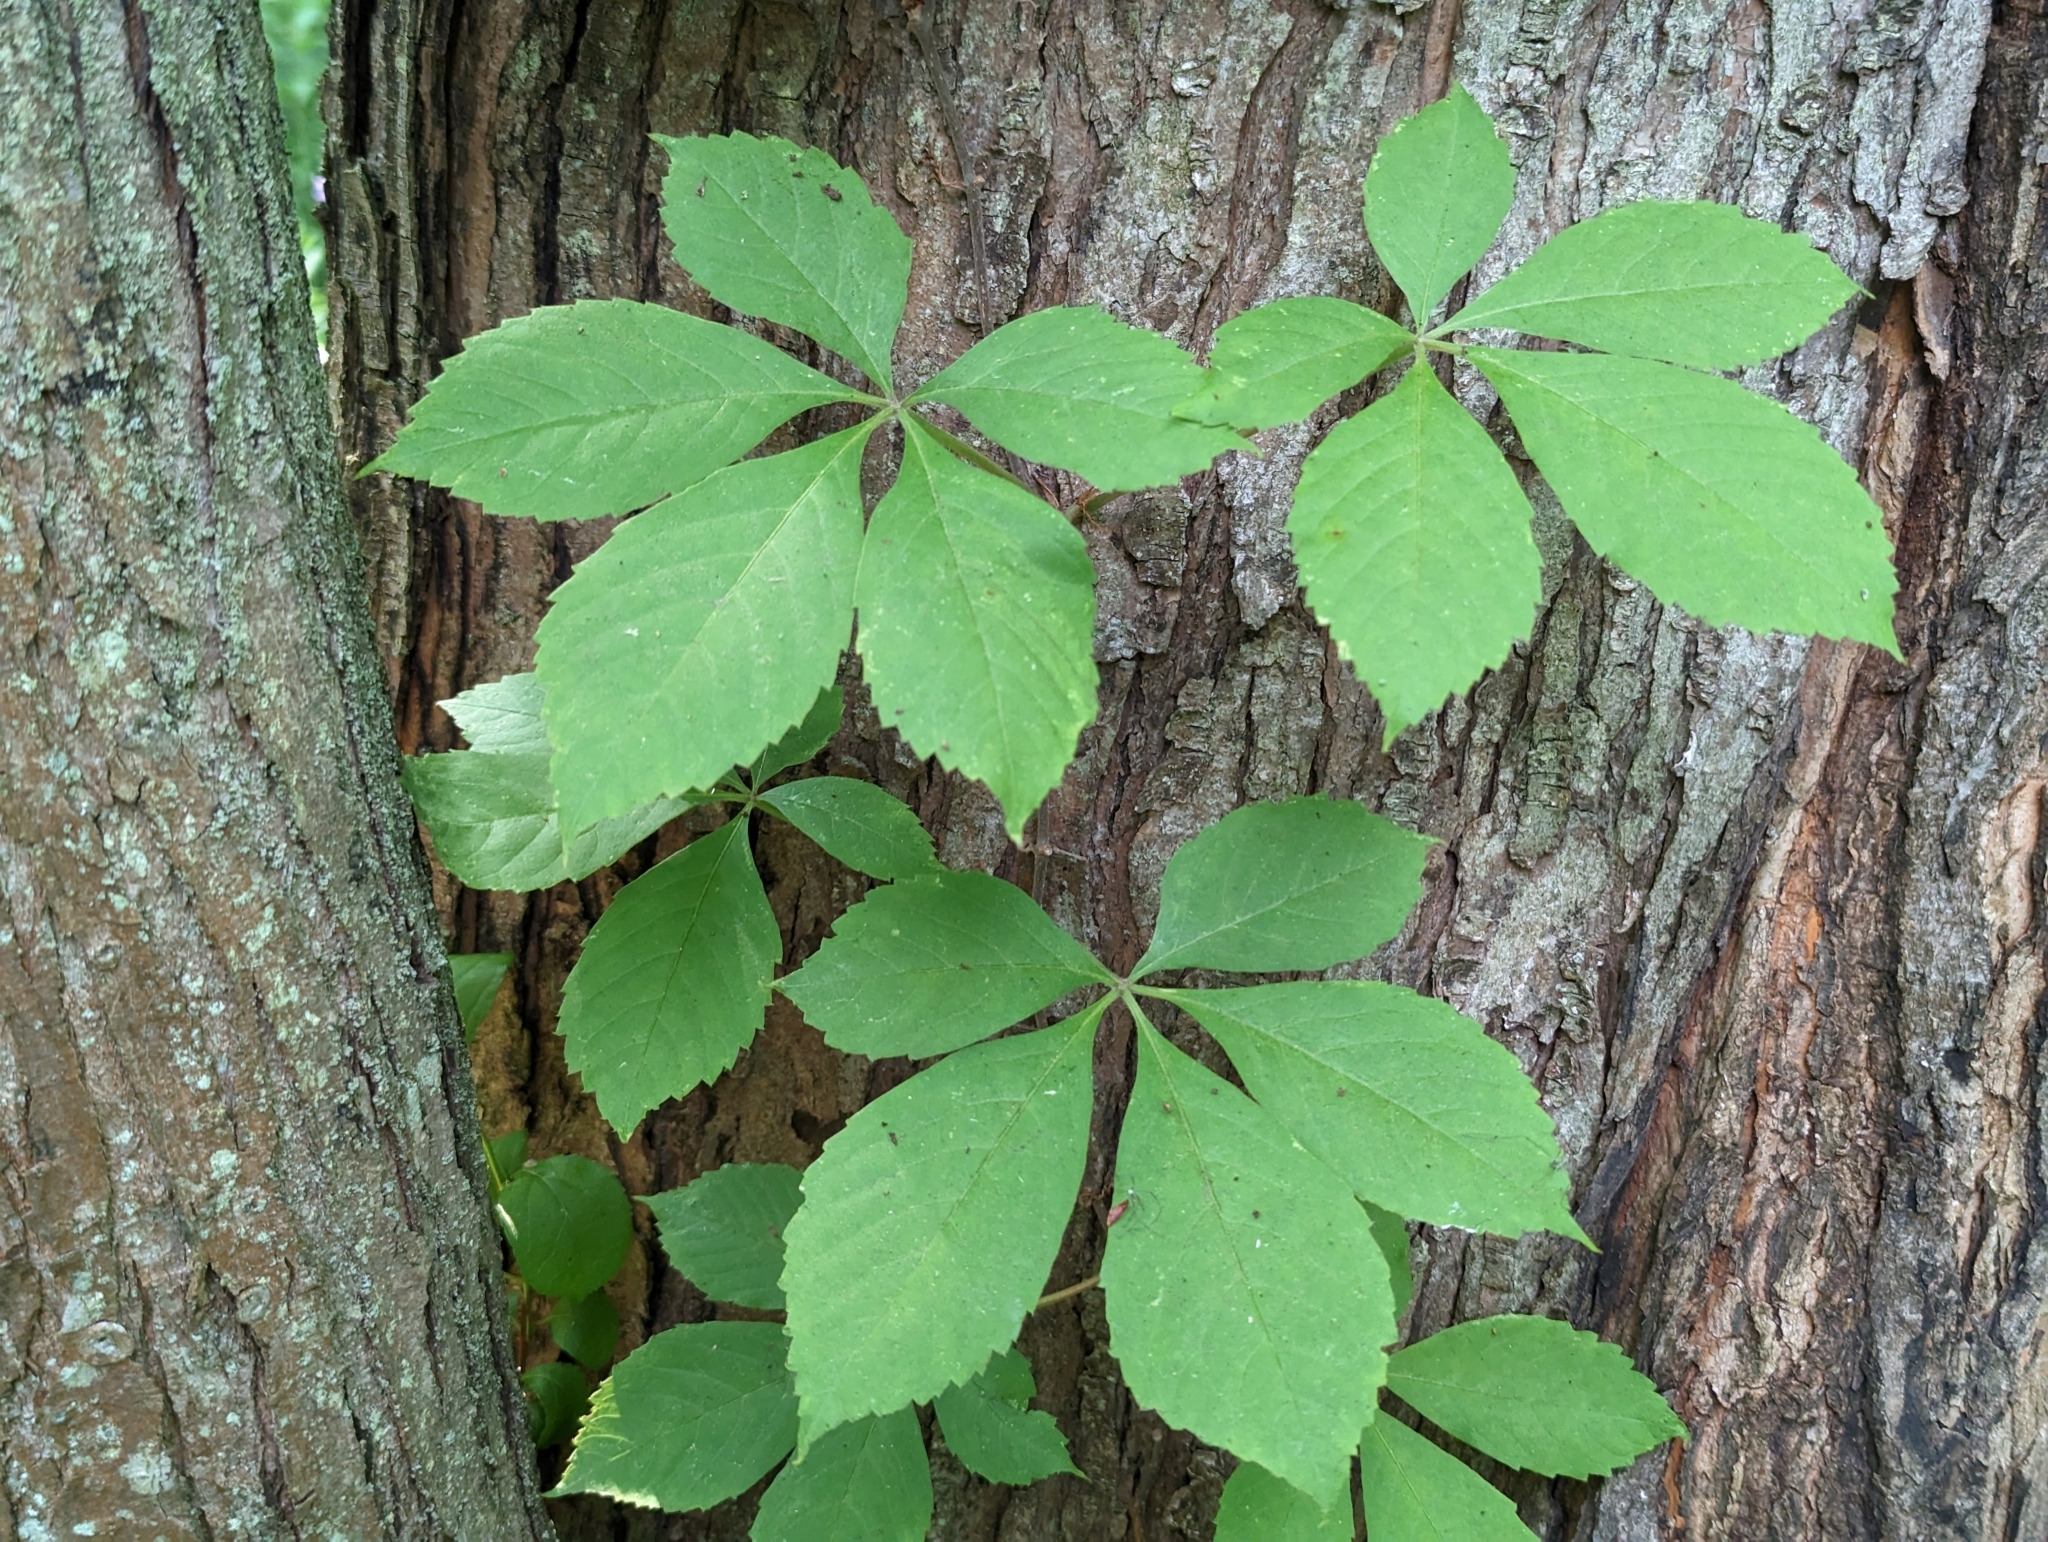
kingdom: Plantae
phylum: Tracheophyta
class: Magnoliopsida
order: Vitales
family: Vitaceae
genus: Parthenocissus
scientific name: Parthenocissus quinquefolia
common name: Virginia-creeper
